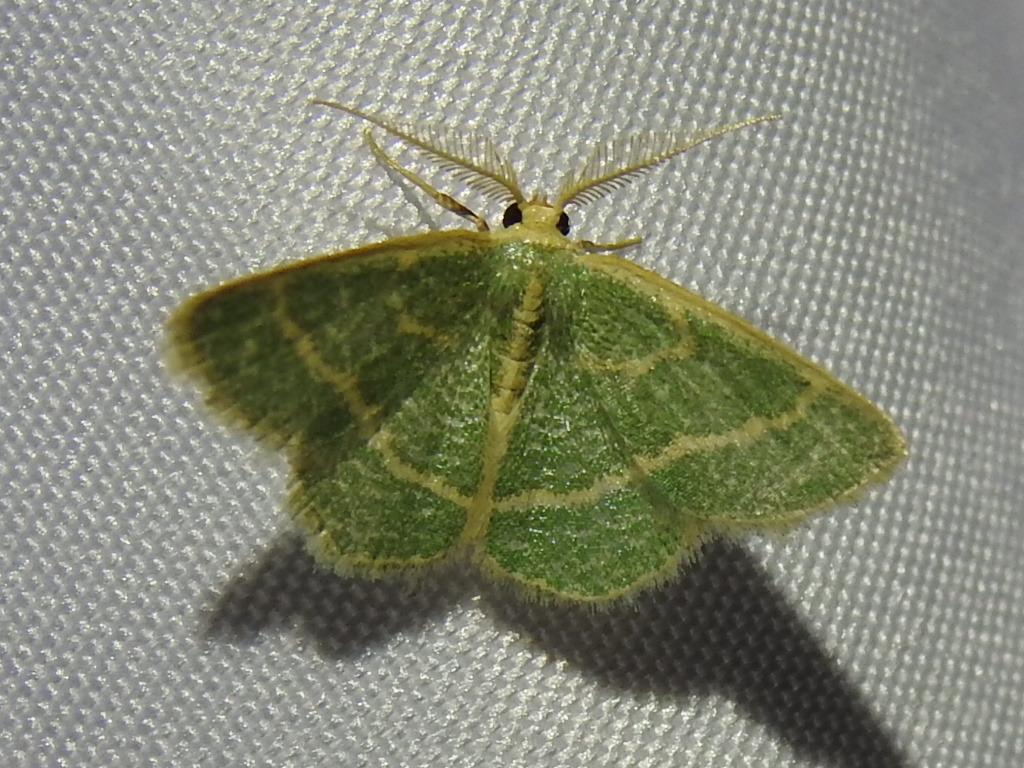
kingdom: Animalia
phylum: Arthropoda
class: Insecta
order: Lepidoptera
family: Geometridae
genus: Chlorochlamys
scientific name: Chlorochlamys chloroleucaria
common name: Blackberry looper
